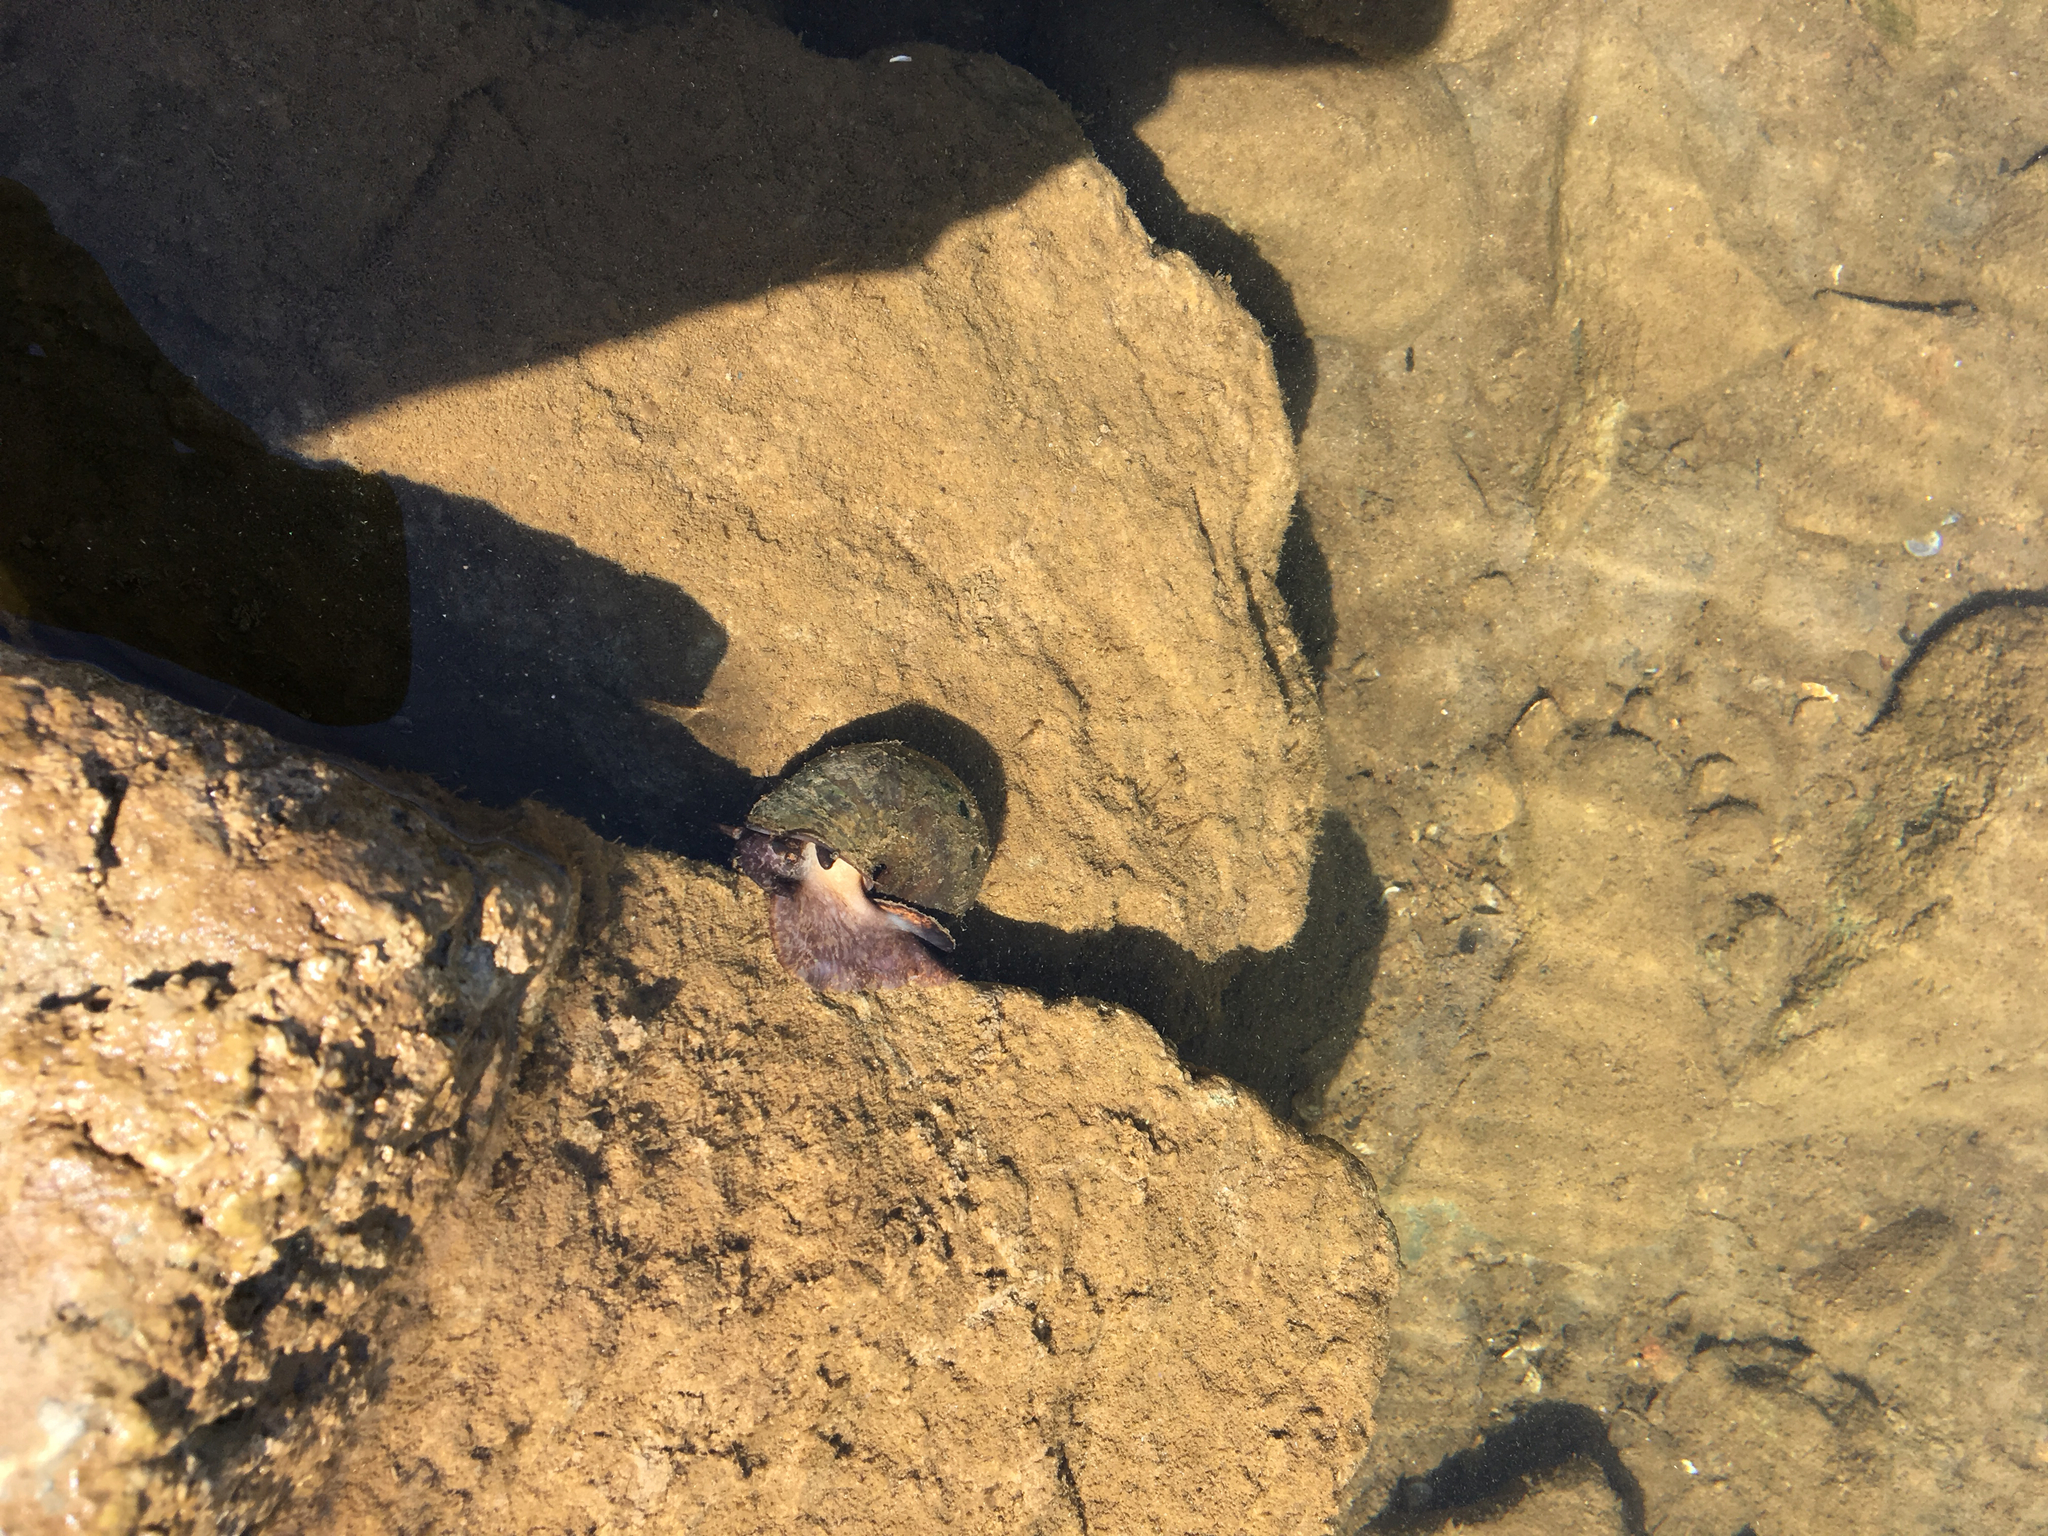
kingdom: Animalia
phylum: Mollusca
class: Gastropoda
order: Architaenioglossa
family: Ampullariidae
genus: Pomacea
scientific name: Pomacea canaliculata
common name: Channeled applesnail
